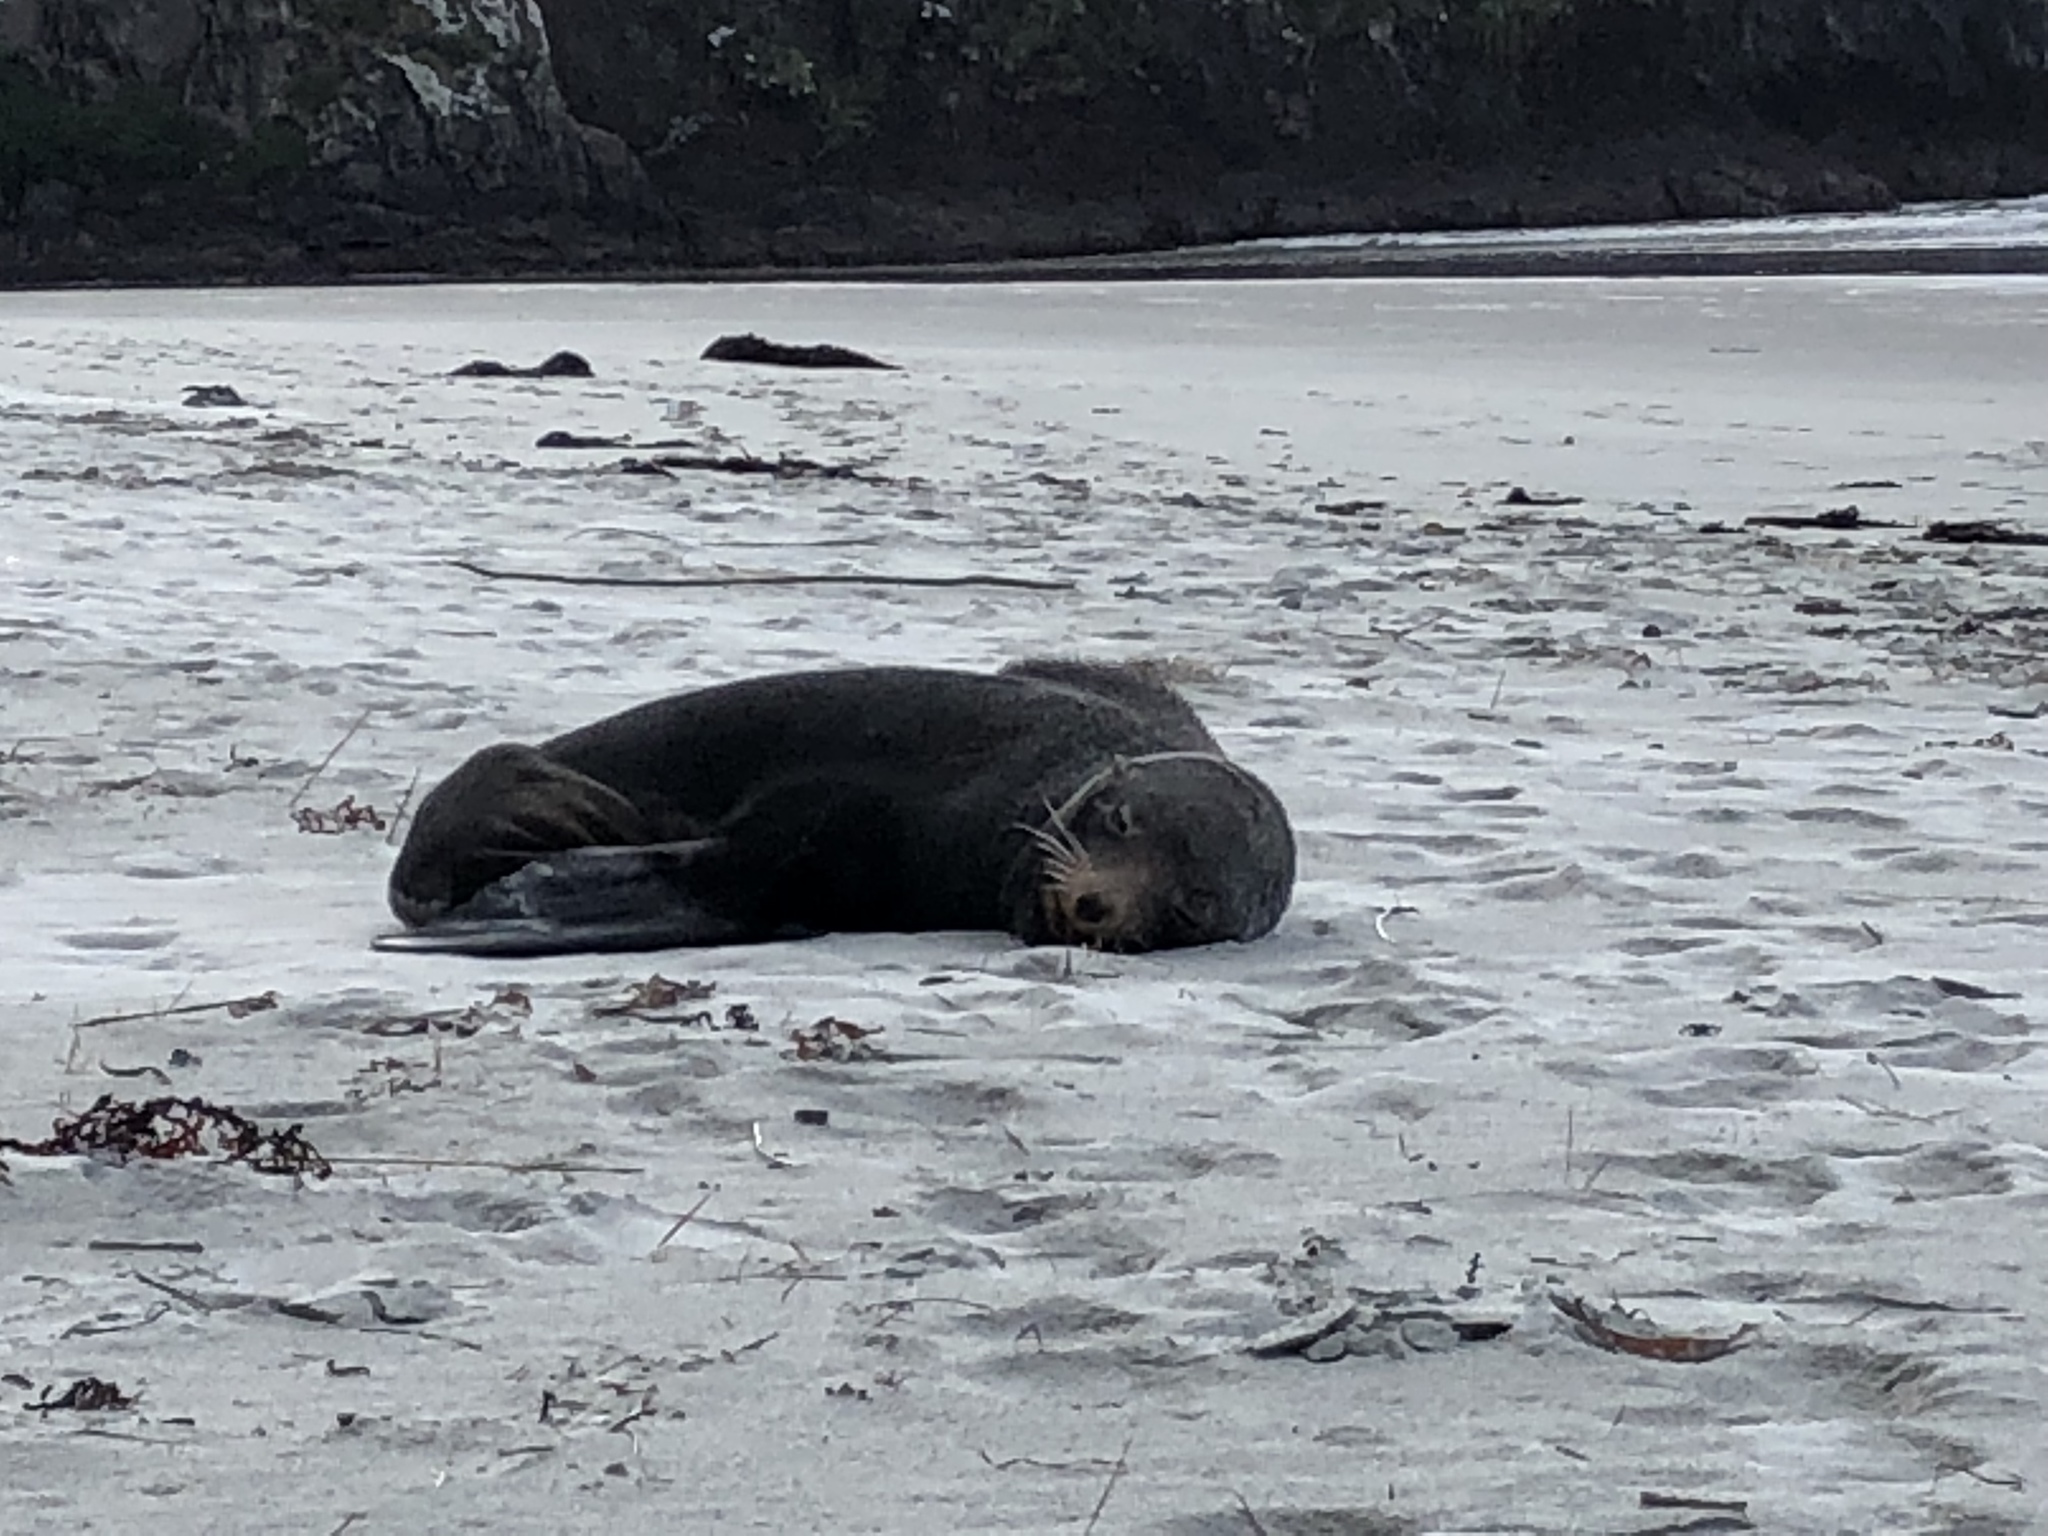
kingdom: Animalia
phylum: Chordata
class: Mammalia
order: Carnivora
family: Otariidae
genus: Phocarctos
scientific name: Phocarctos hookeri
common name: New zealand sea lion
